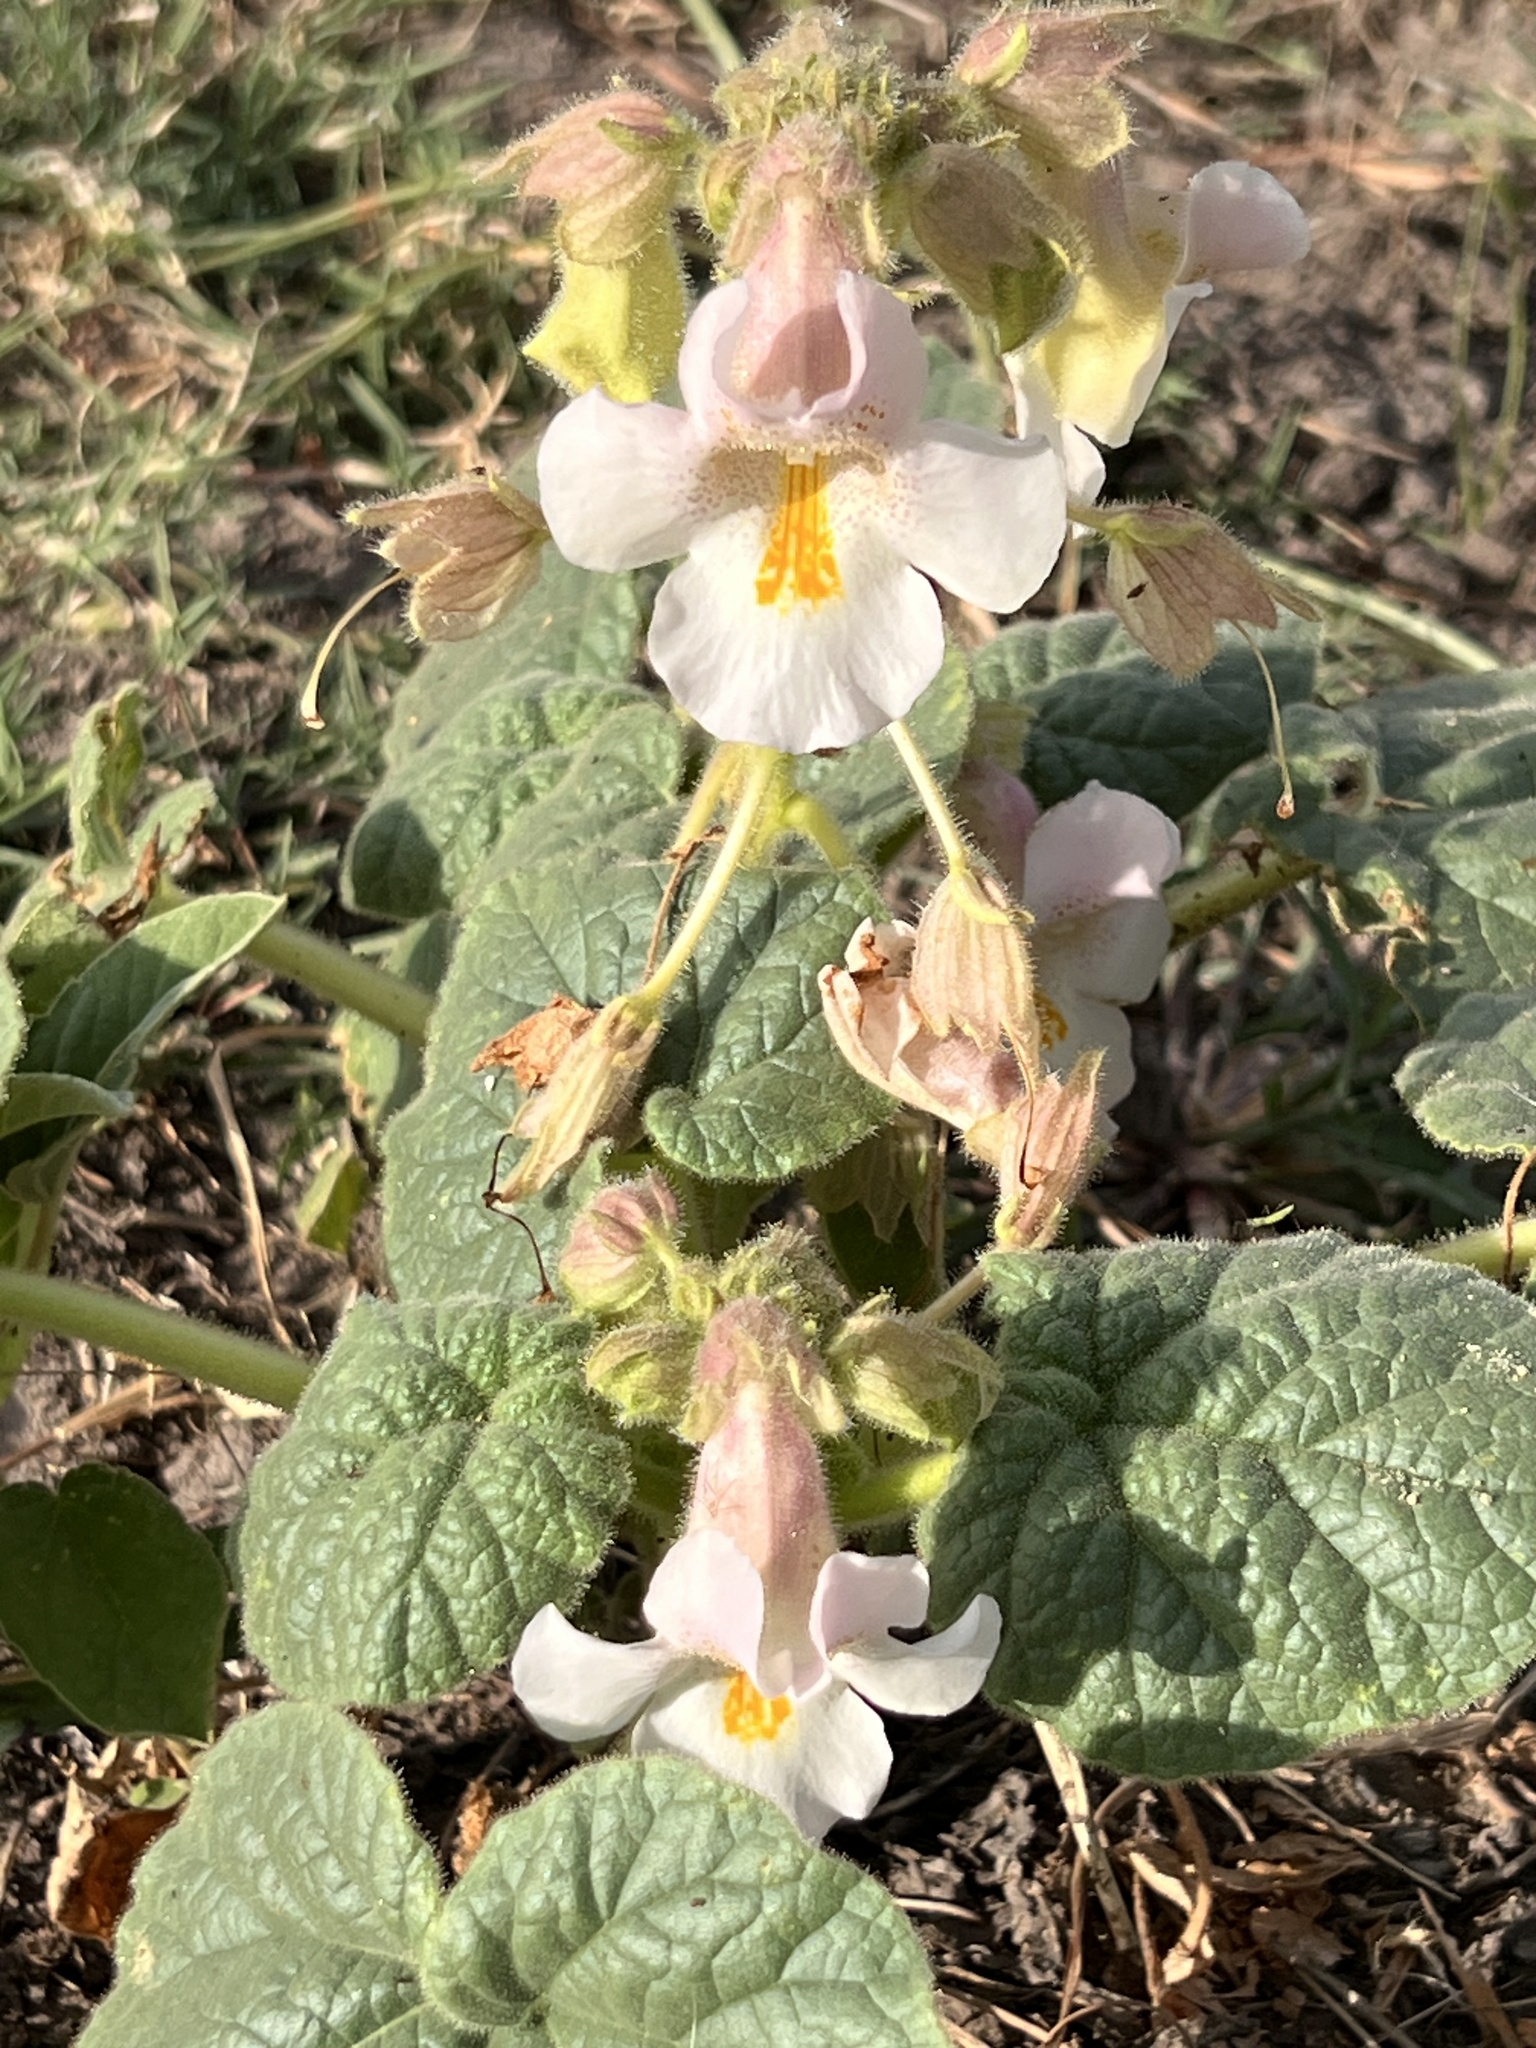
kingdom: Plantae
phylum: Tracheophyta
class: Magnoliopsida
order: Lamiales
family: Martyniaceae
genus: Proboscidea
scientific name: Proboscidea louisianica
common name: Elephant tusks
